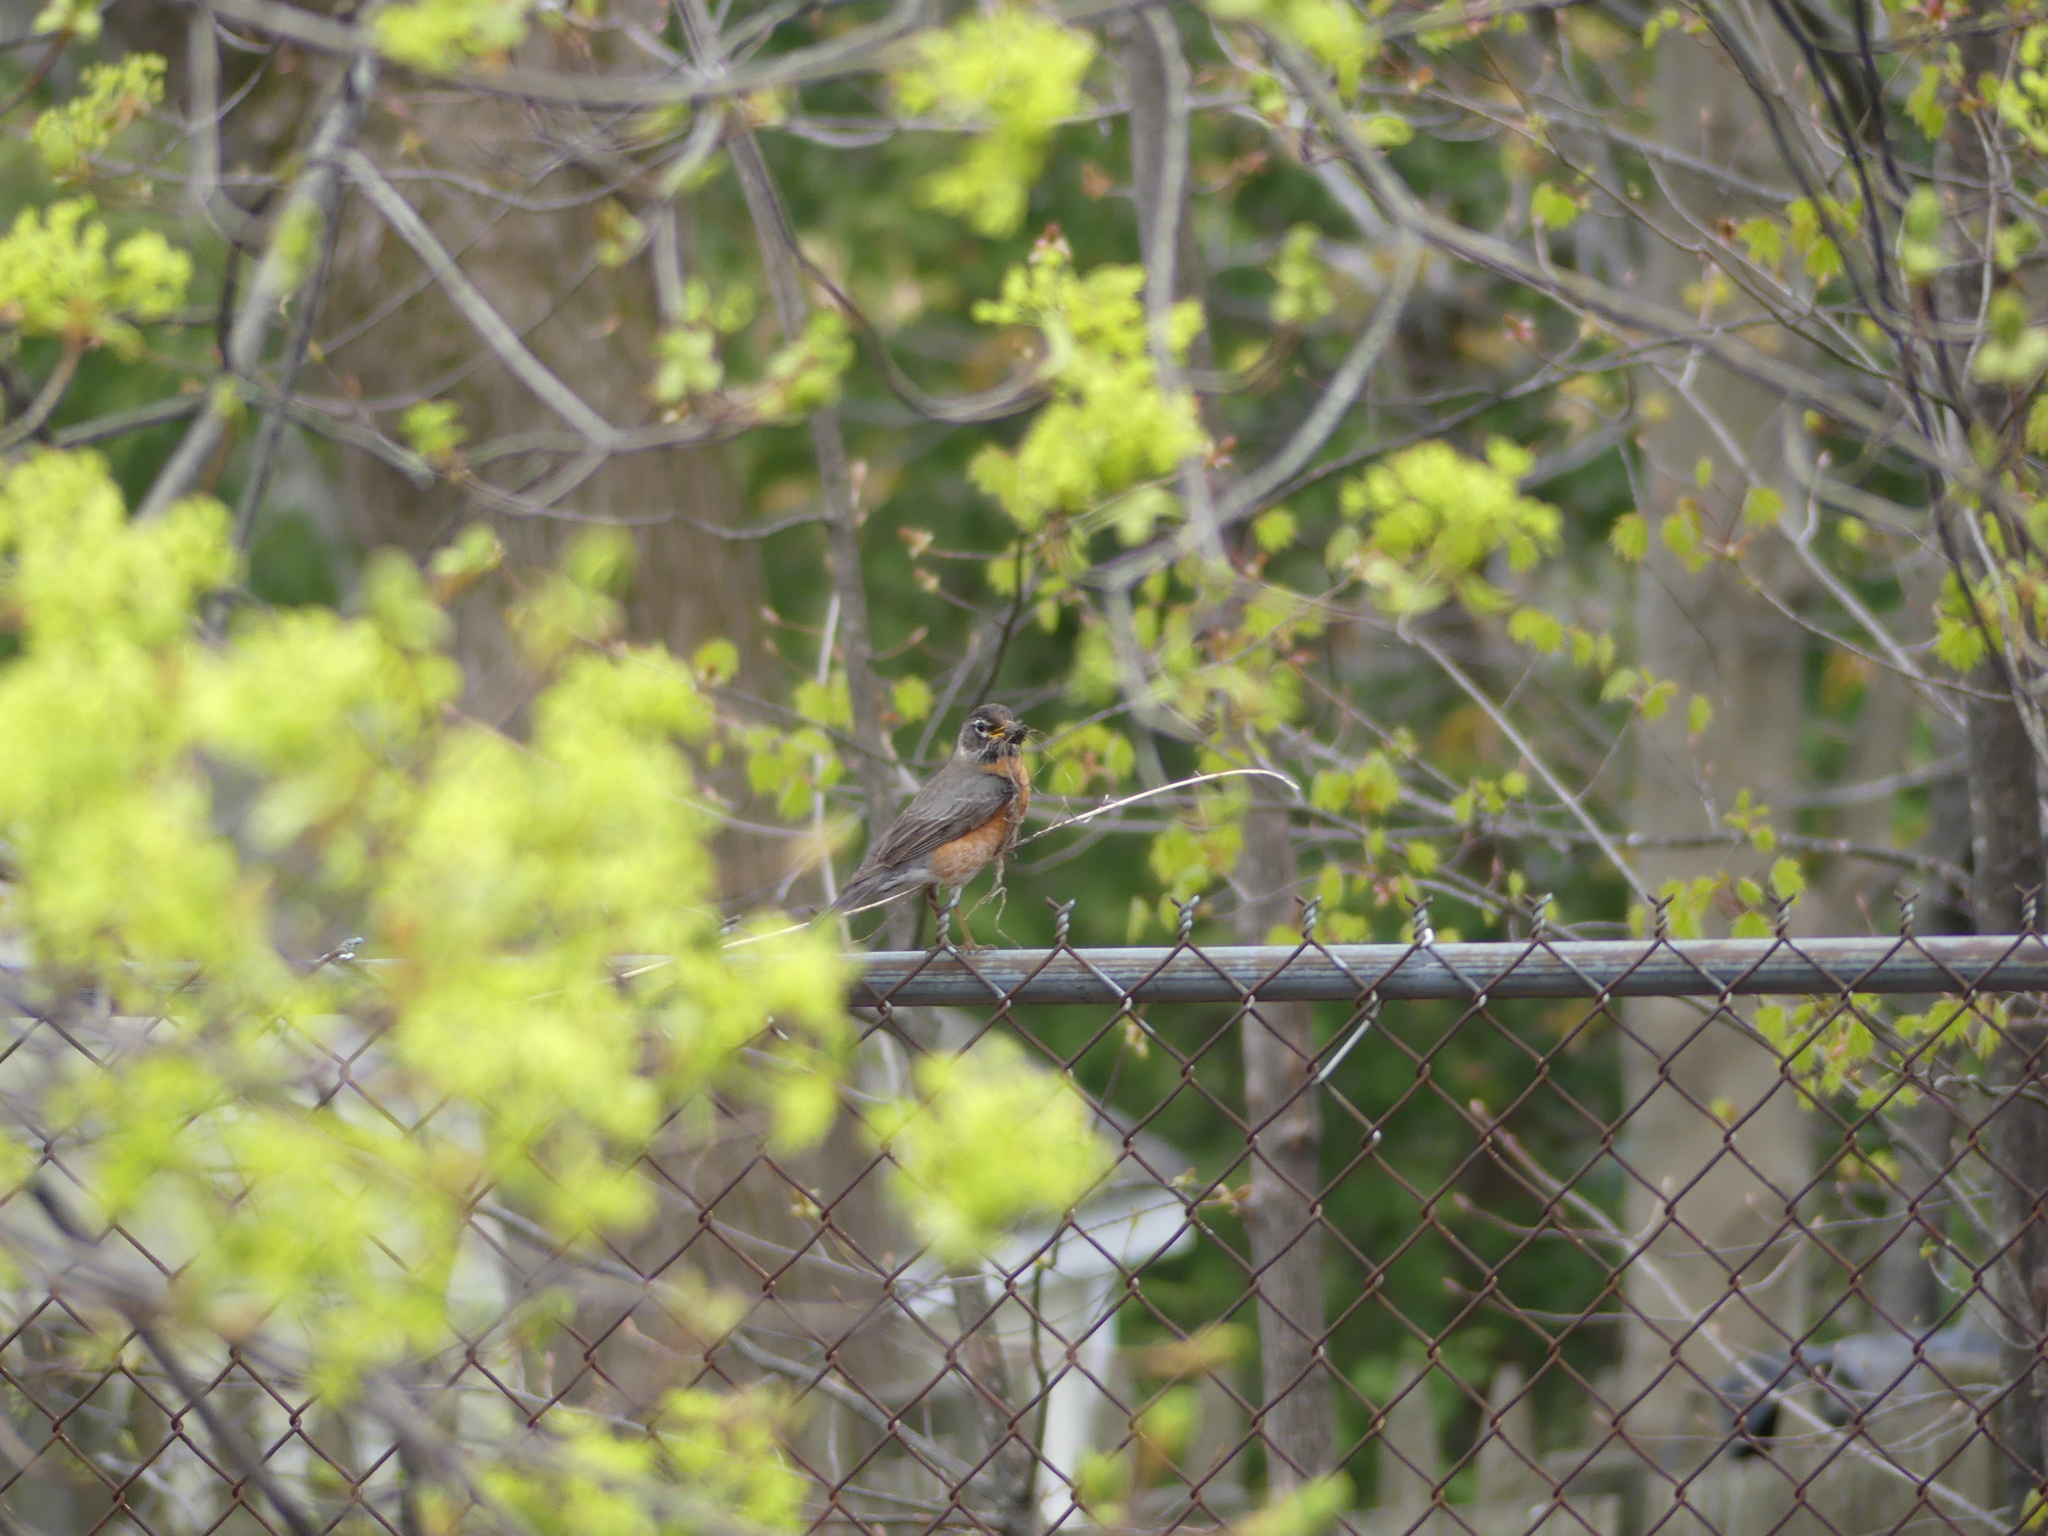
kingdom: Animalia
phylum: Chordata
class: Aves
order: Passeriformes
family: Turdidae
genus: Turdus
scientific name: Turdus migratorius
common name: American robin
